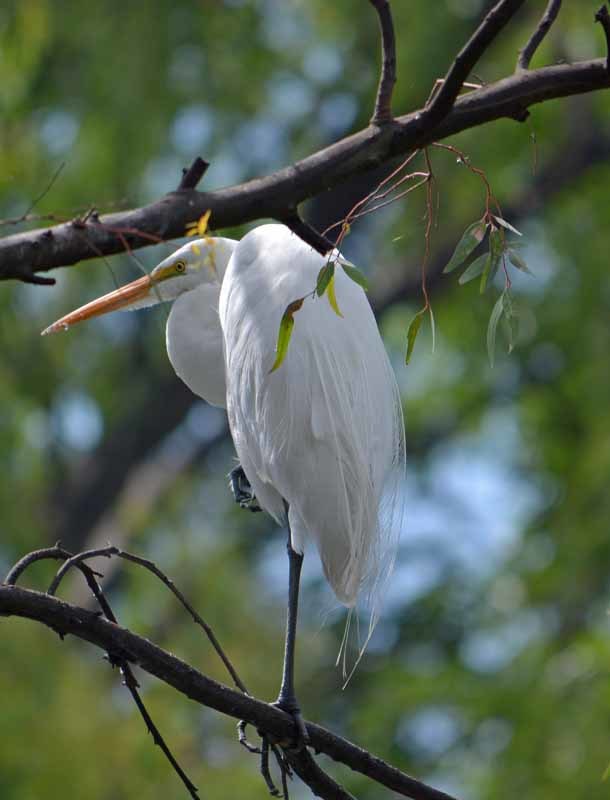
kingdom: Animalia
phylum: Chordata
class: Aves
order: Pelecaniformes
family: Ardeidae
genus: Ardea
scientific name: Ardea alba
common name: Great egret
